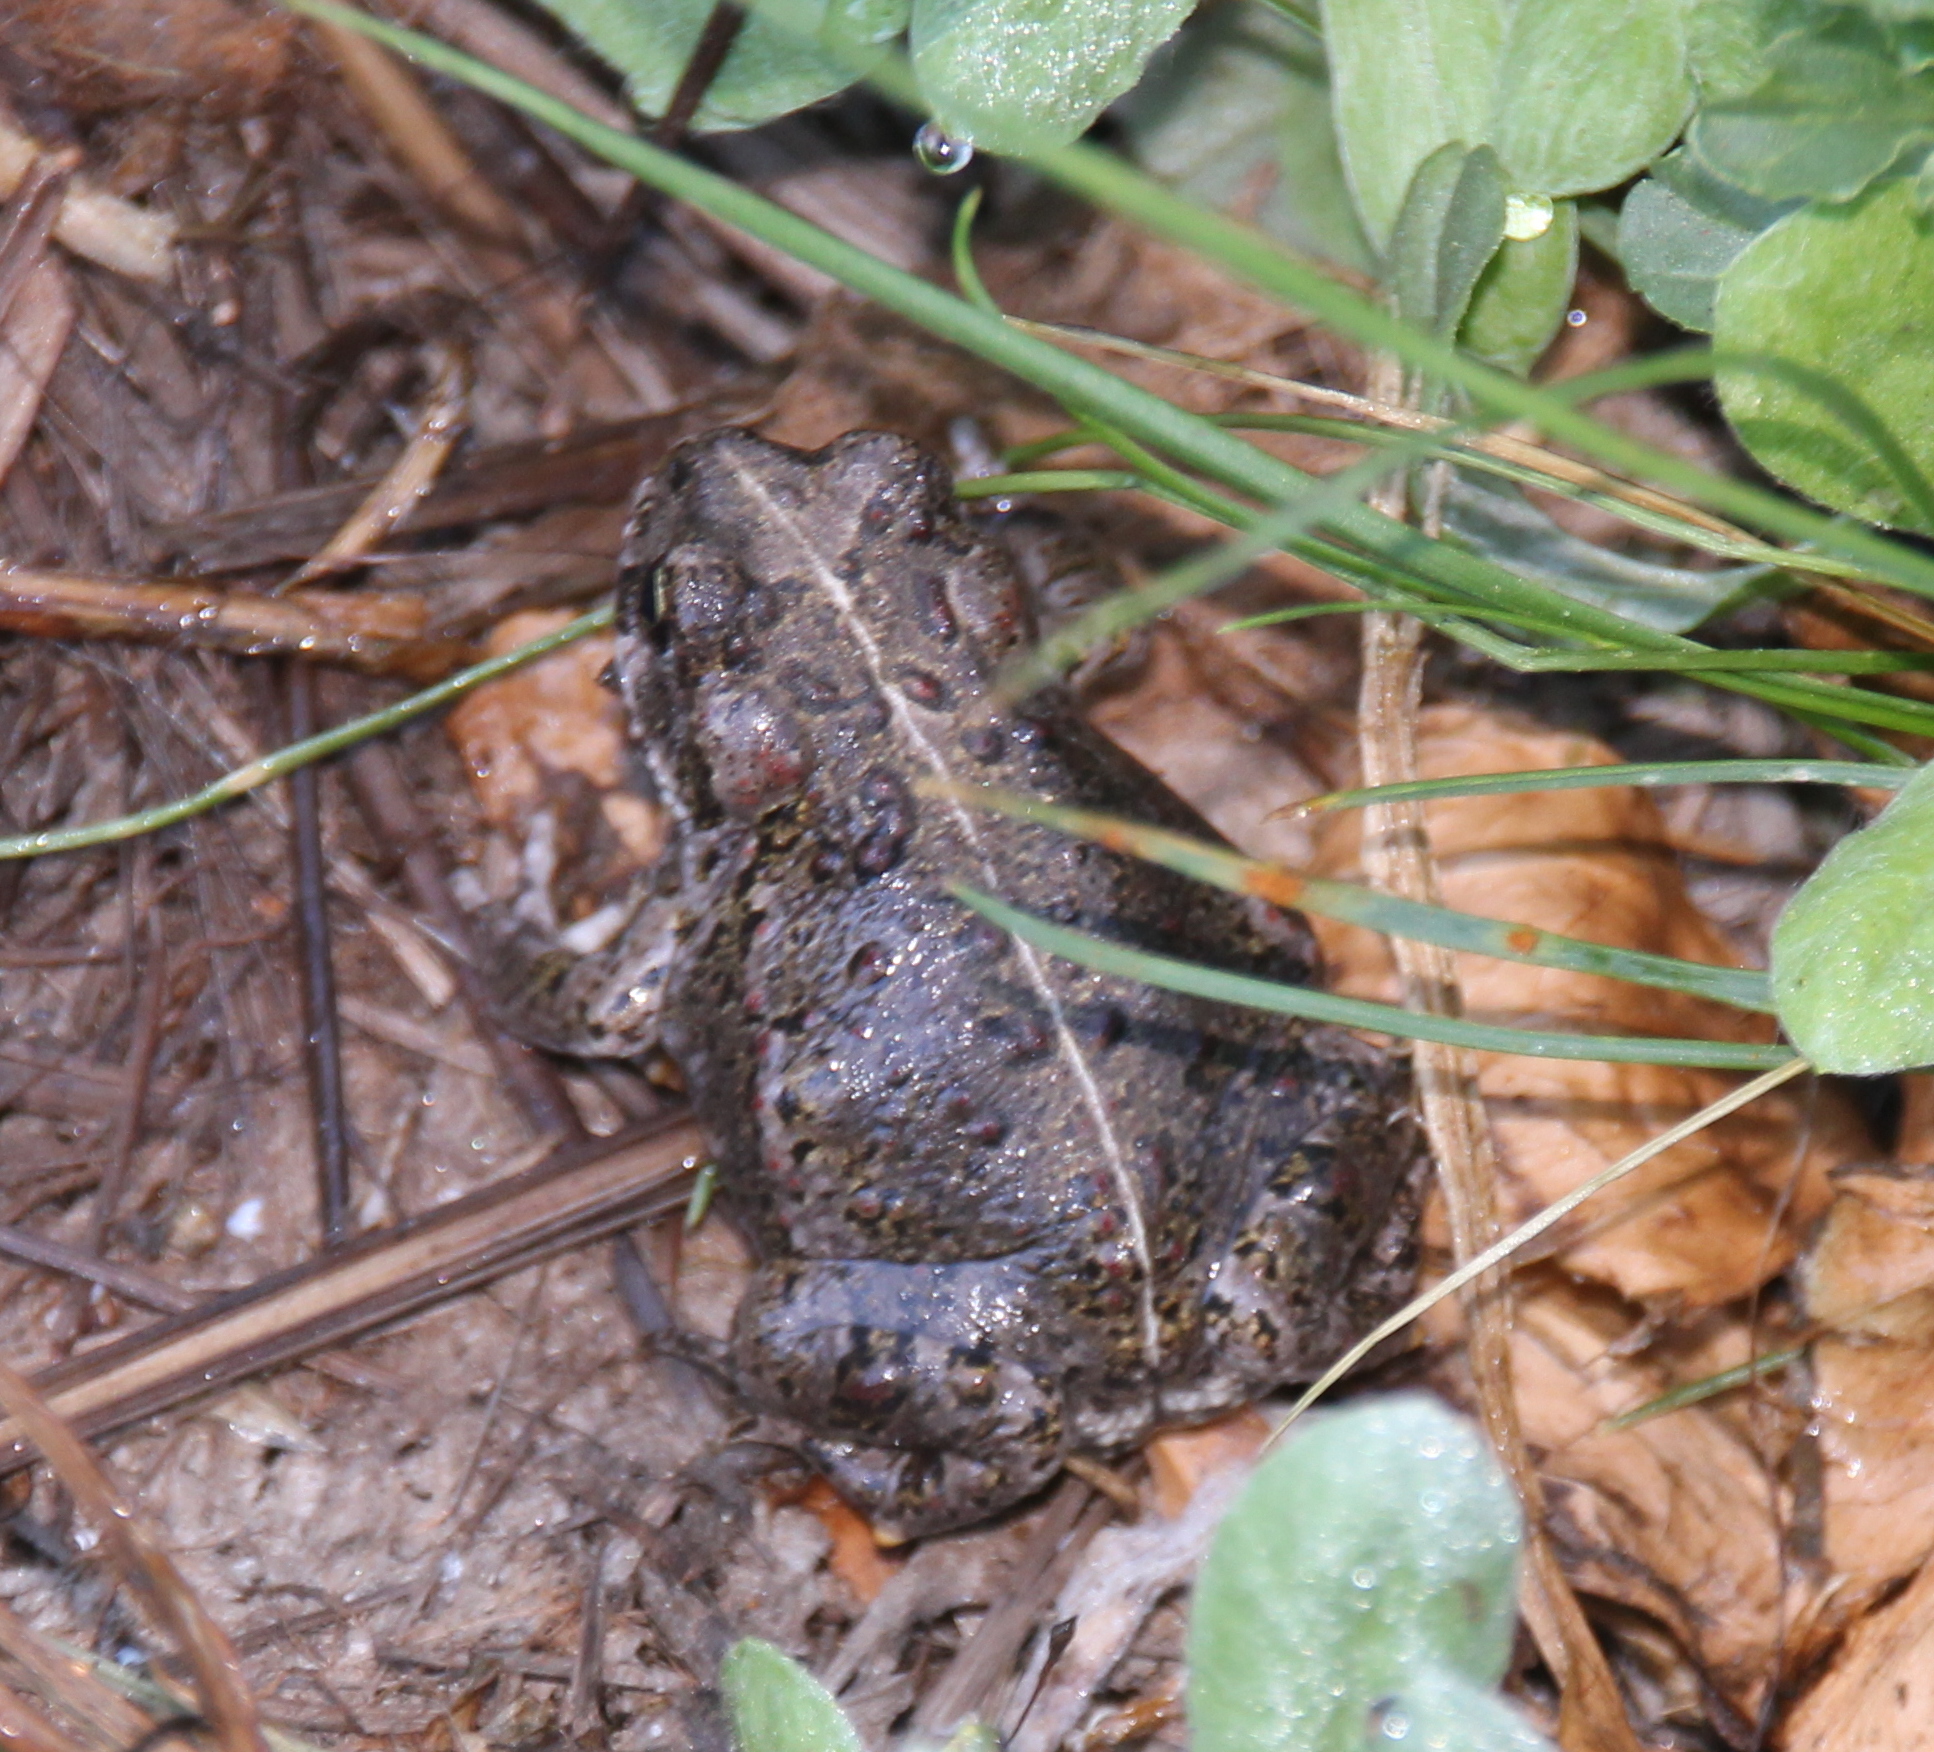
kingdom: Animalia
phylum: Chordata
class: Amphibia
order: Anura
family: Bufonidae
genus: Anaxyrus
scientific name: Anaxyrus boreas
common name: Western toad
